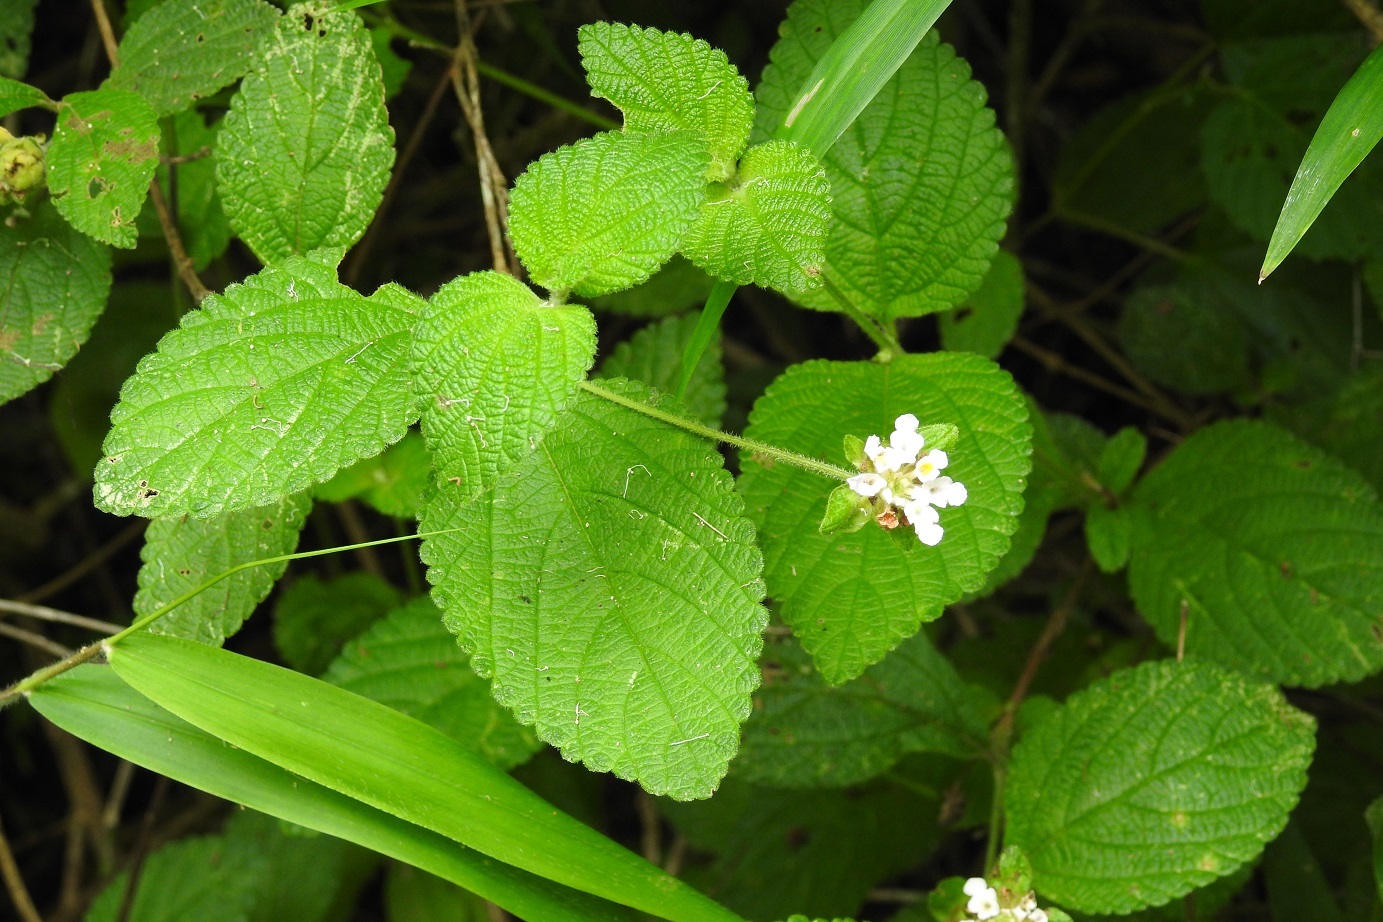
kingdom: Plantae
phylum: Tracheophyta
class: Magnoliopsida
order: Lamiales
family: Verbenaceae
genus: Lantana
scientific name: Lantana involucrata
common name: Black sage
